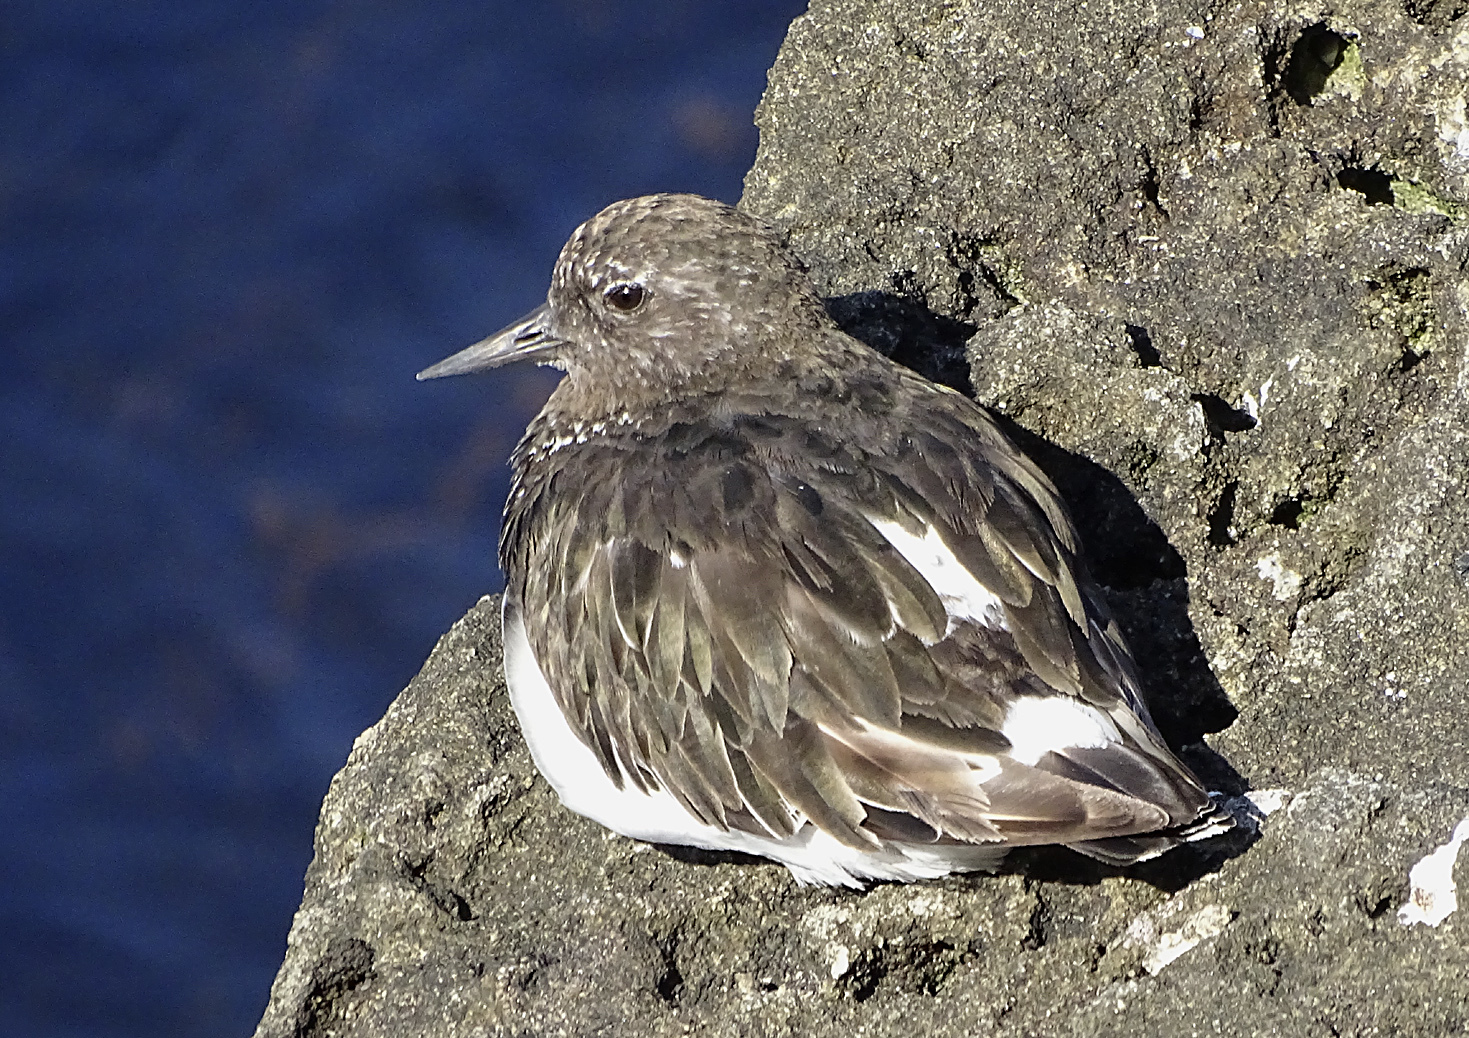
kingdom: Animalia
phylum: Chordata
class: Aves
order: Charadriiformes
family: Scolopacidae
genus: Arenaria
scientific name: Arenaria melanocephala
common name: Black turnstone
